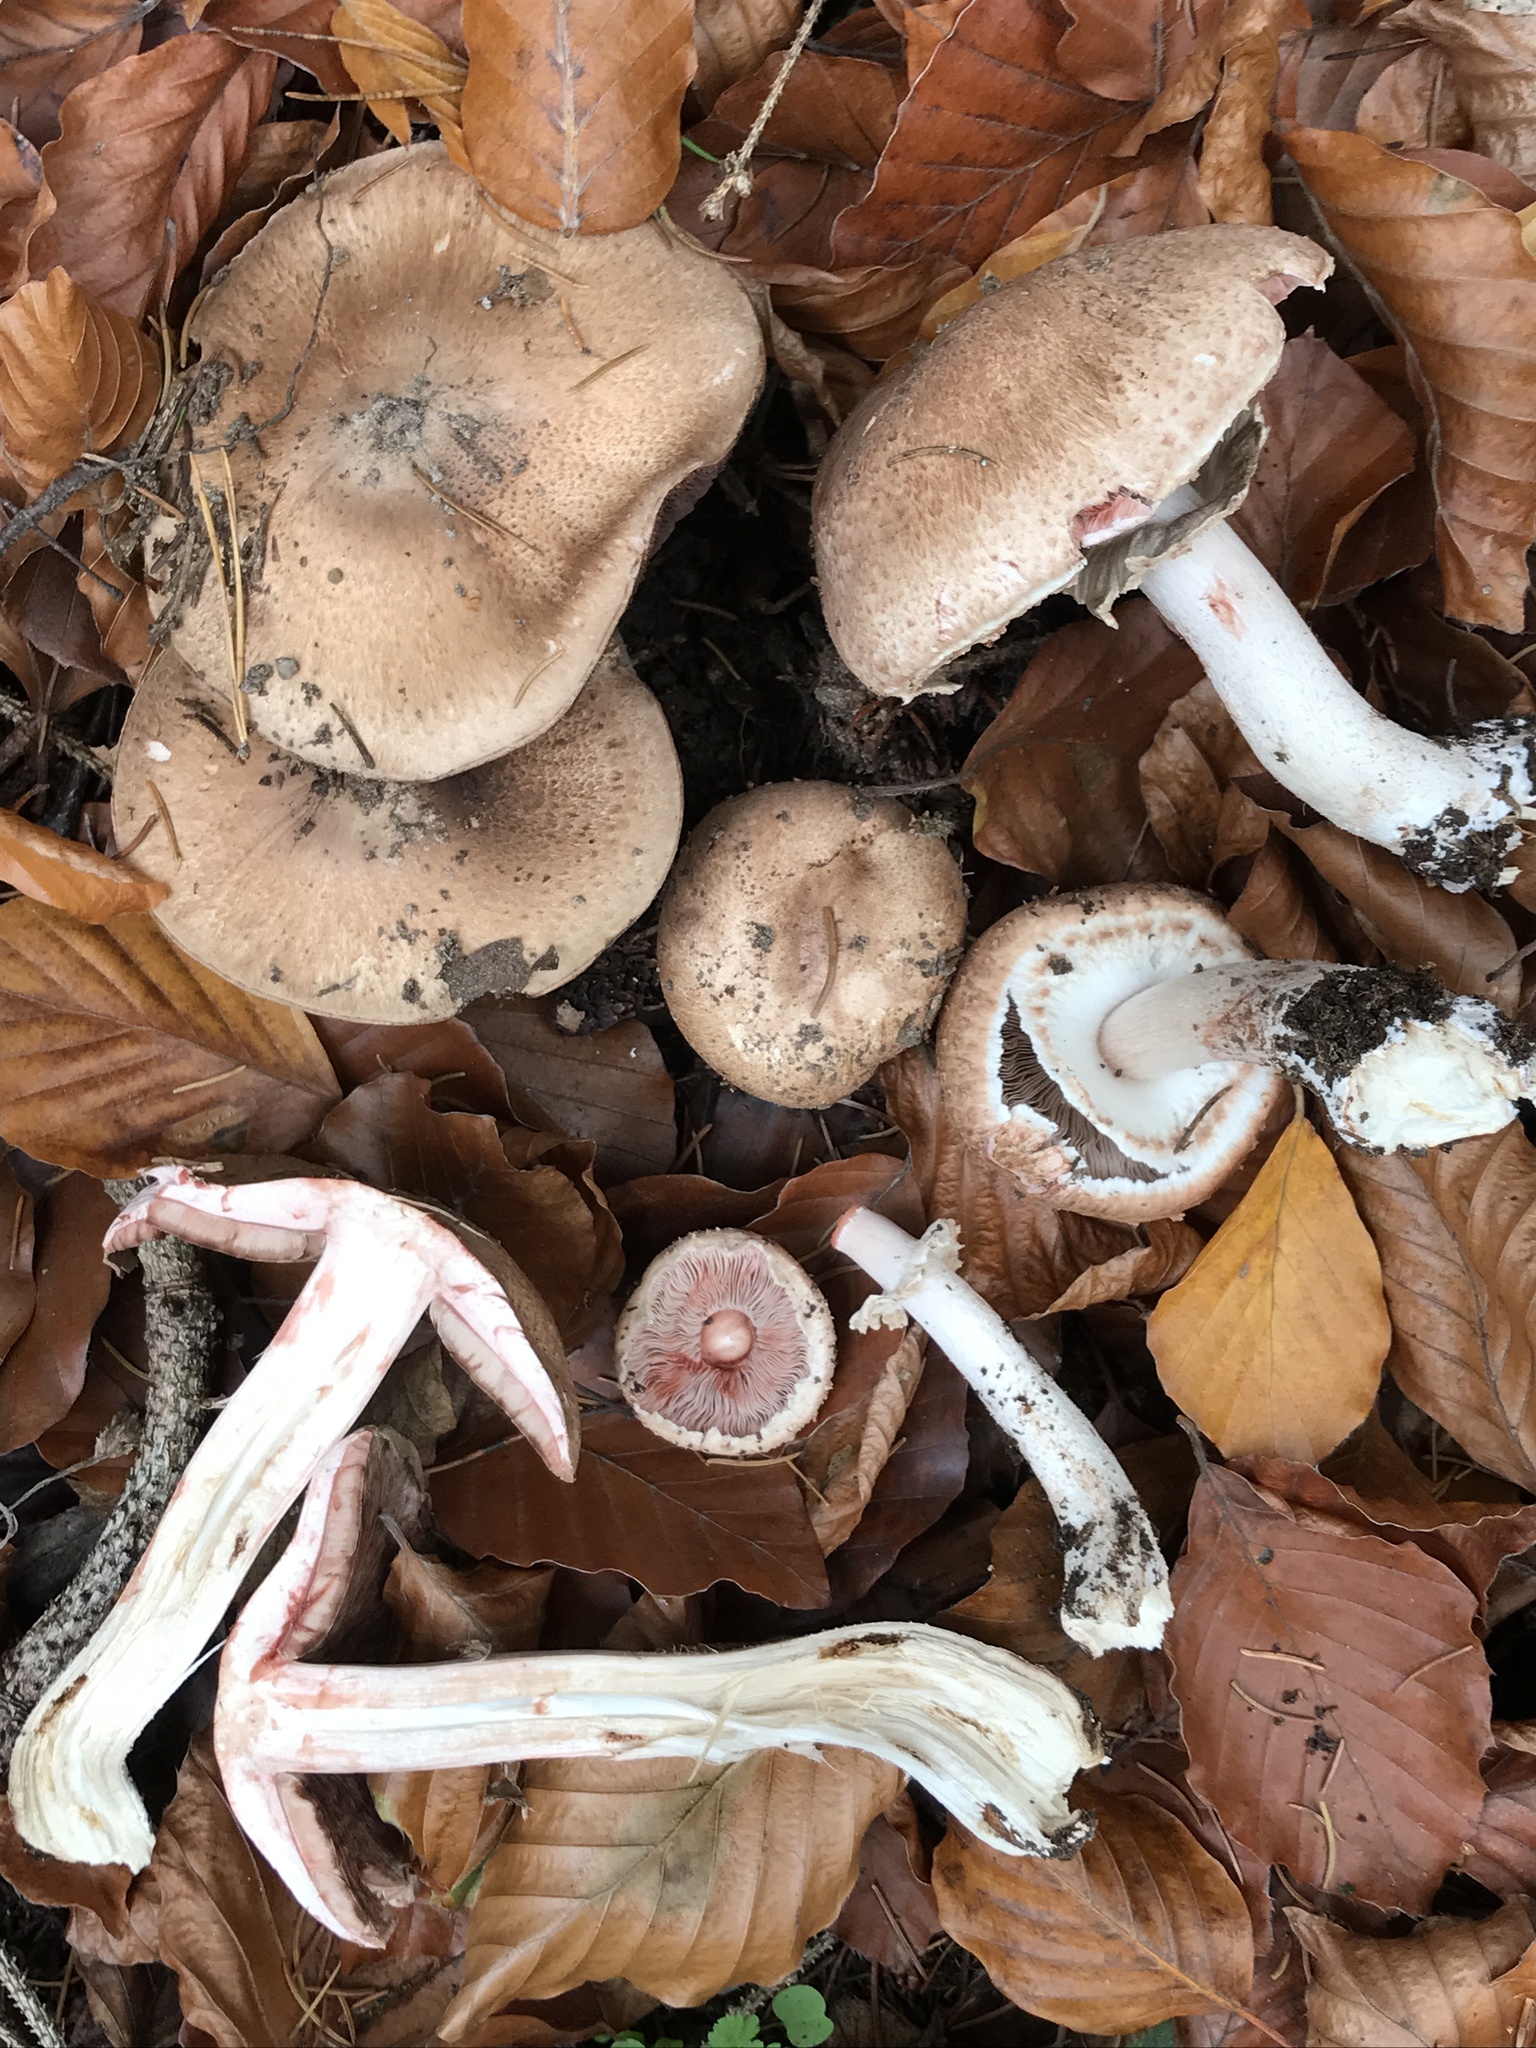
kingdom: Fungi
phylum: Basidiomycota
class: Agaricomycetes
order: Agaricales
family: Agaricaceae
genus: Agaricus
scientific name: Agaricus sylvaticus
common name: Blushing wood mushroom
